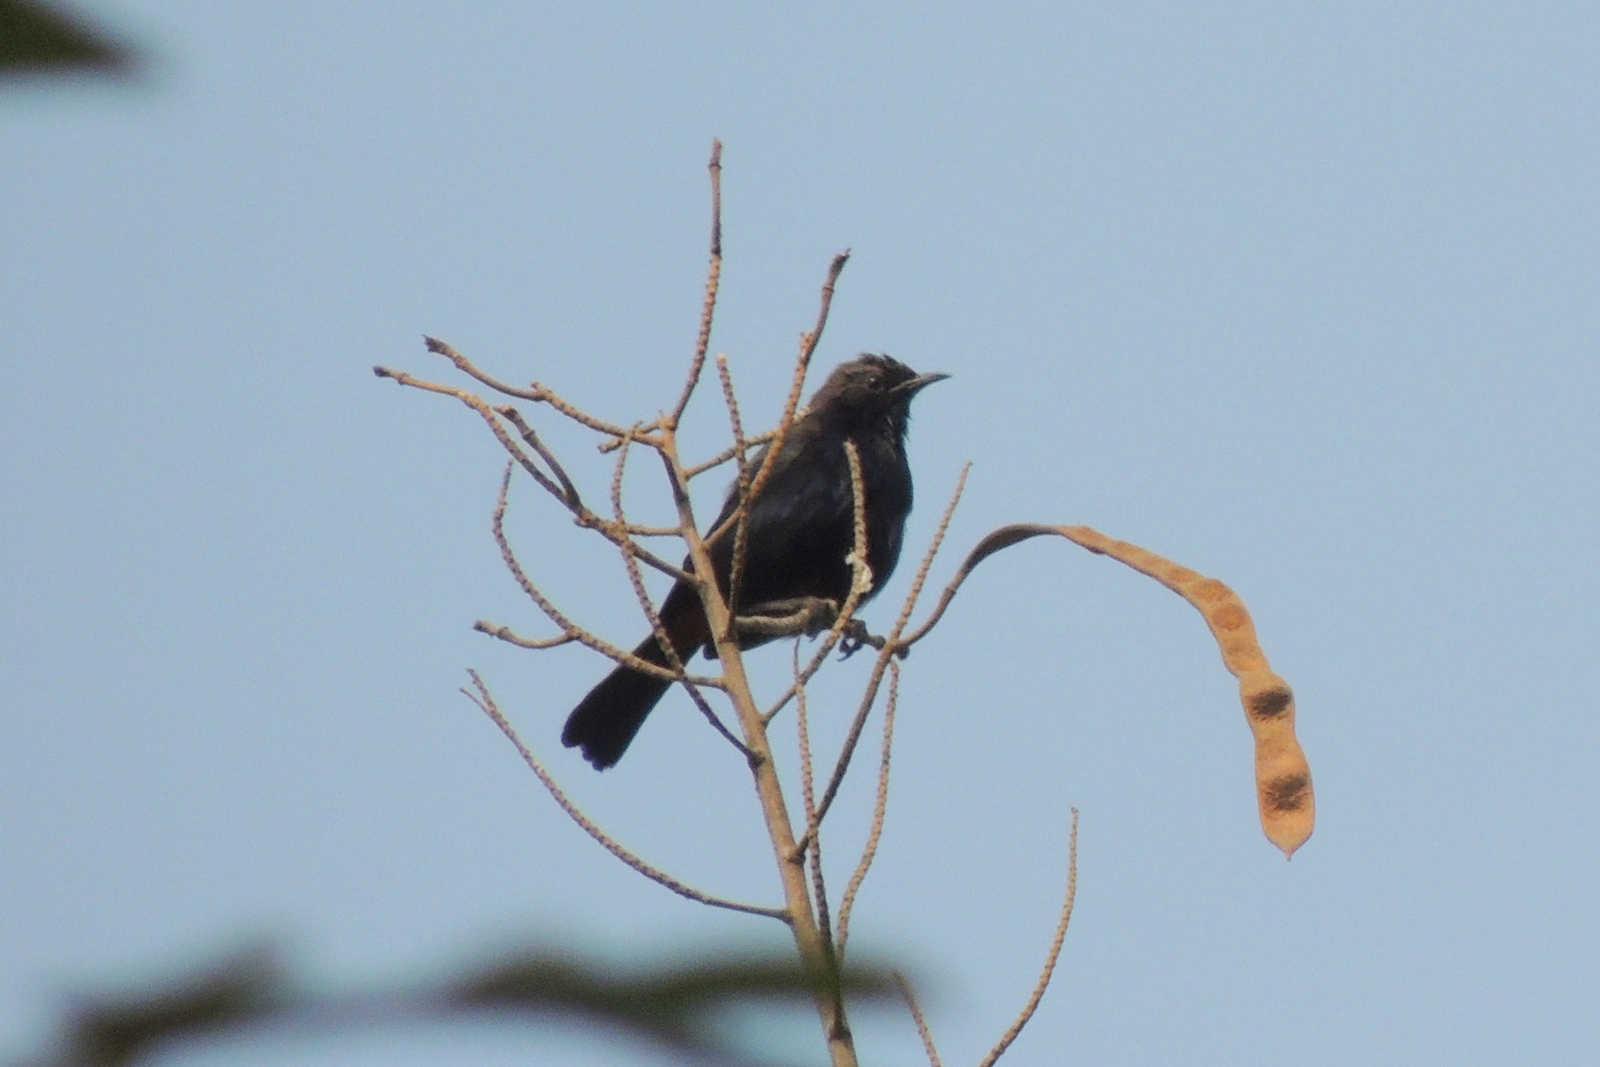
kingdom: Animalia
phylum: Chordata
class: Aves
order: Passeriformes
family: Muscicapidae
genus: Saxicoloides
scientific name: Saxicoloides fulicatus
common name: Indian robin
